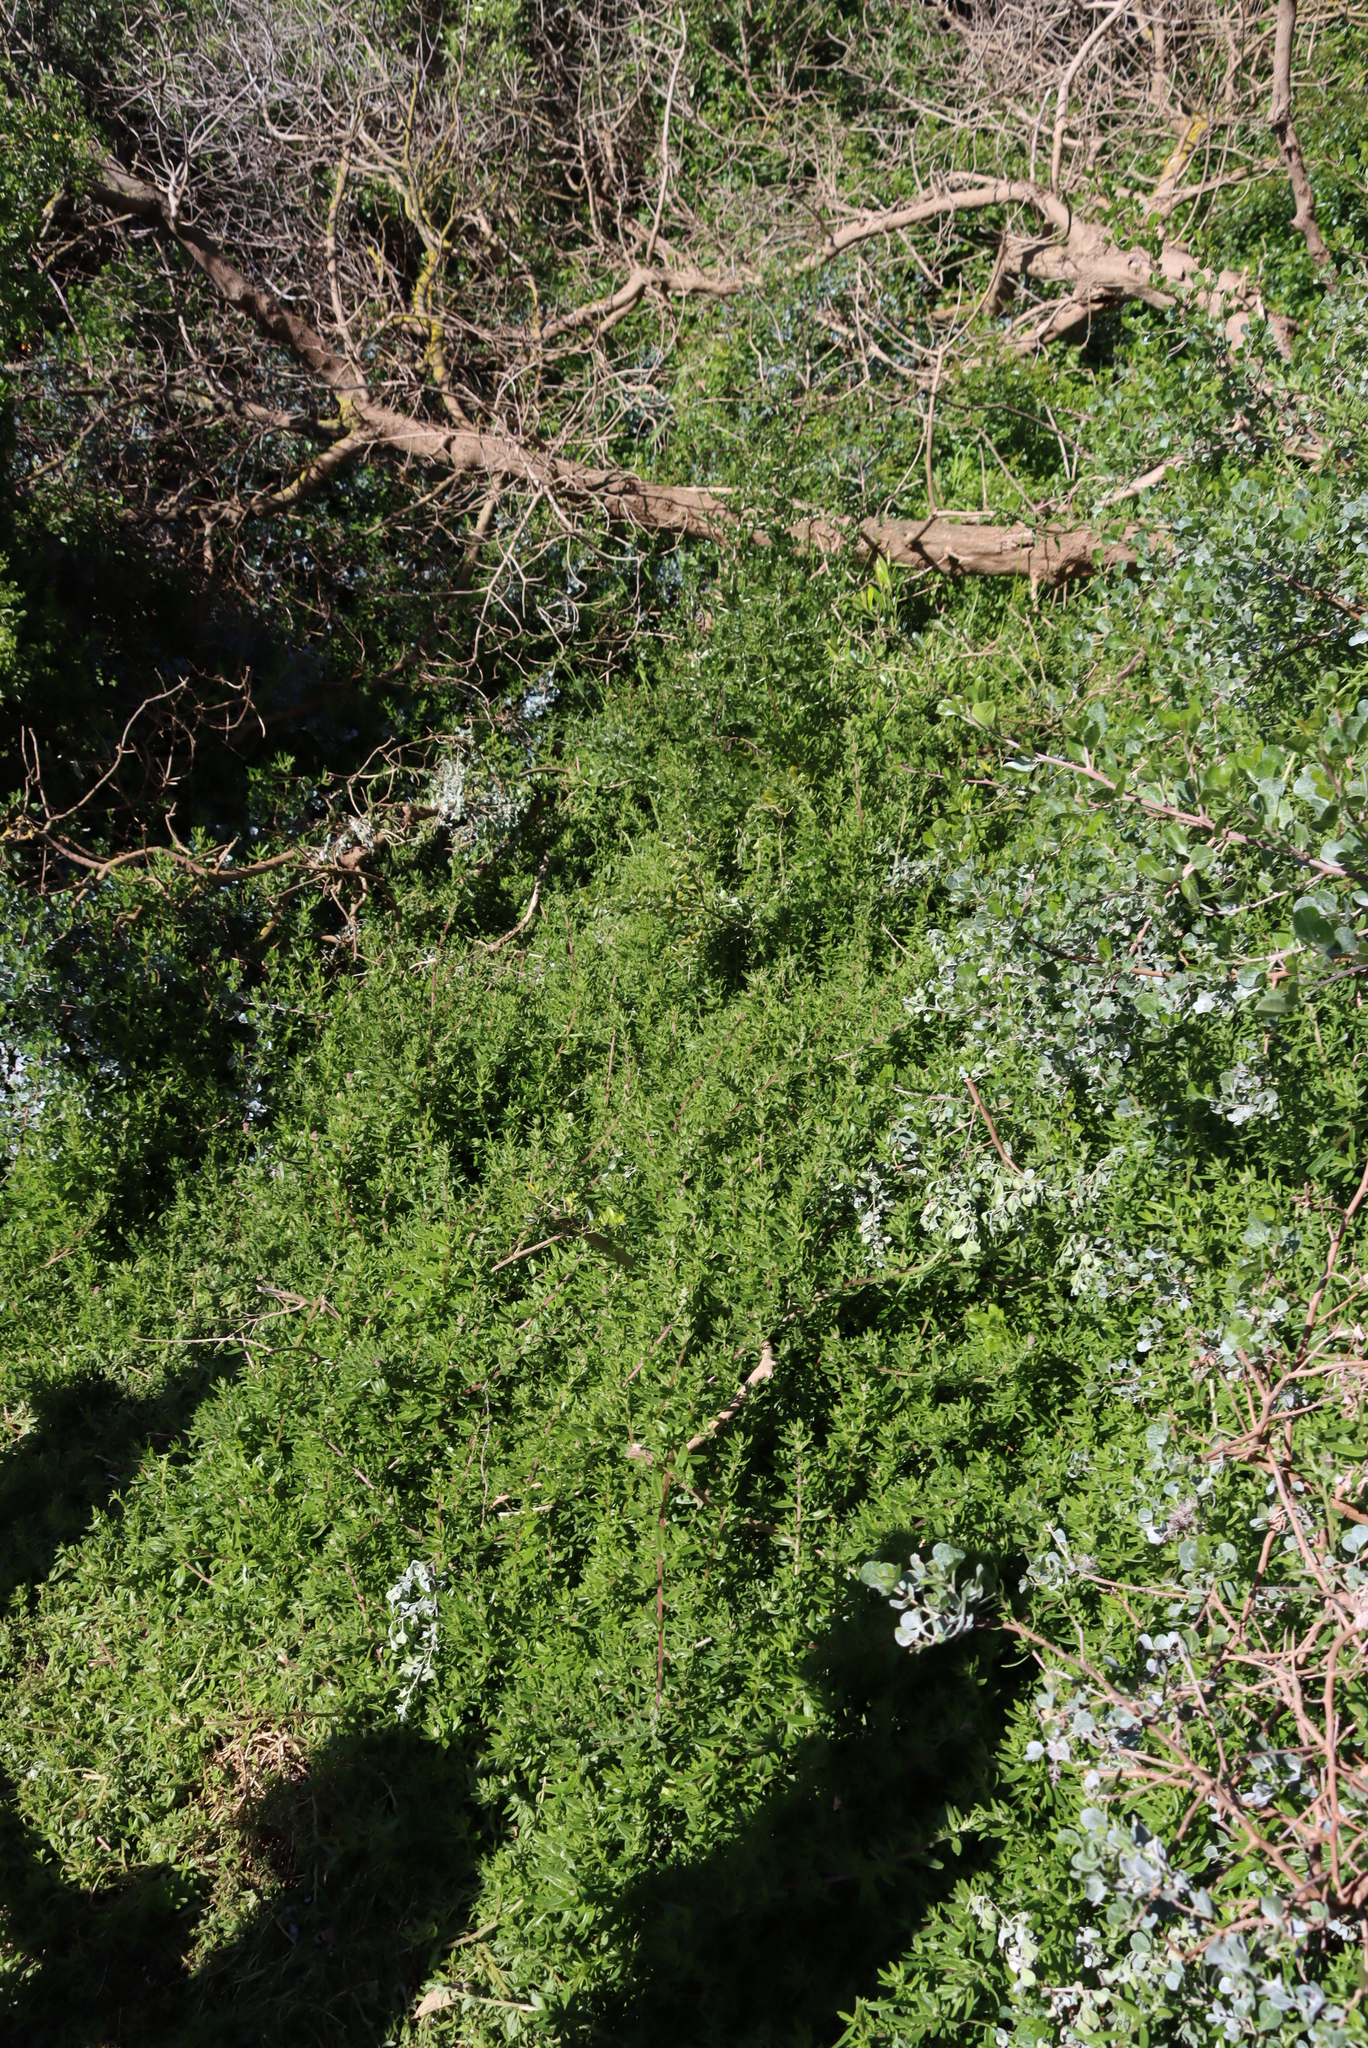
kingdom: Plantae
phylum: Tracheophyta
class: Magnoliopsida
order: Caryophyllales
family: Aizoaceae
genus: Tetragonia
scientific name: Tetragonia fruticosa
